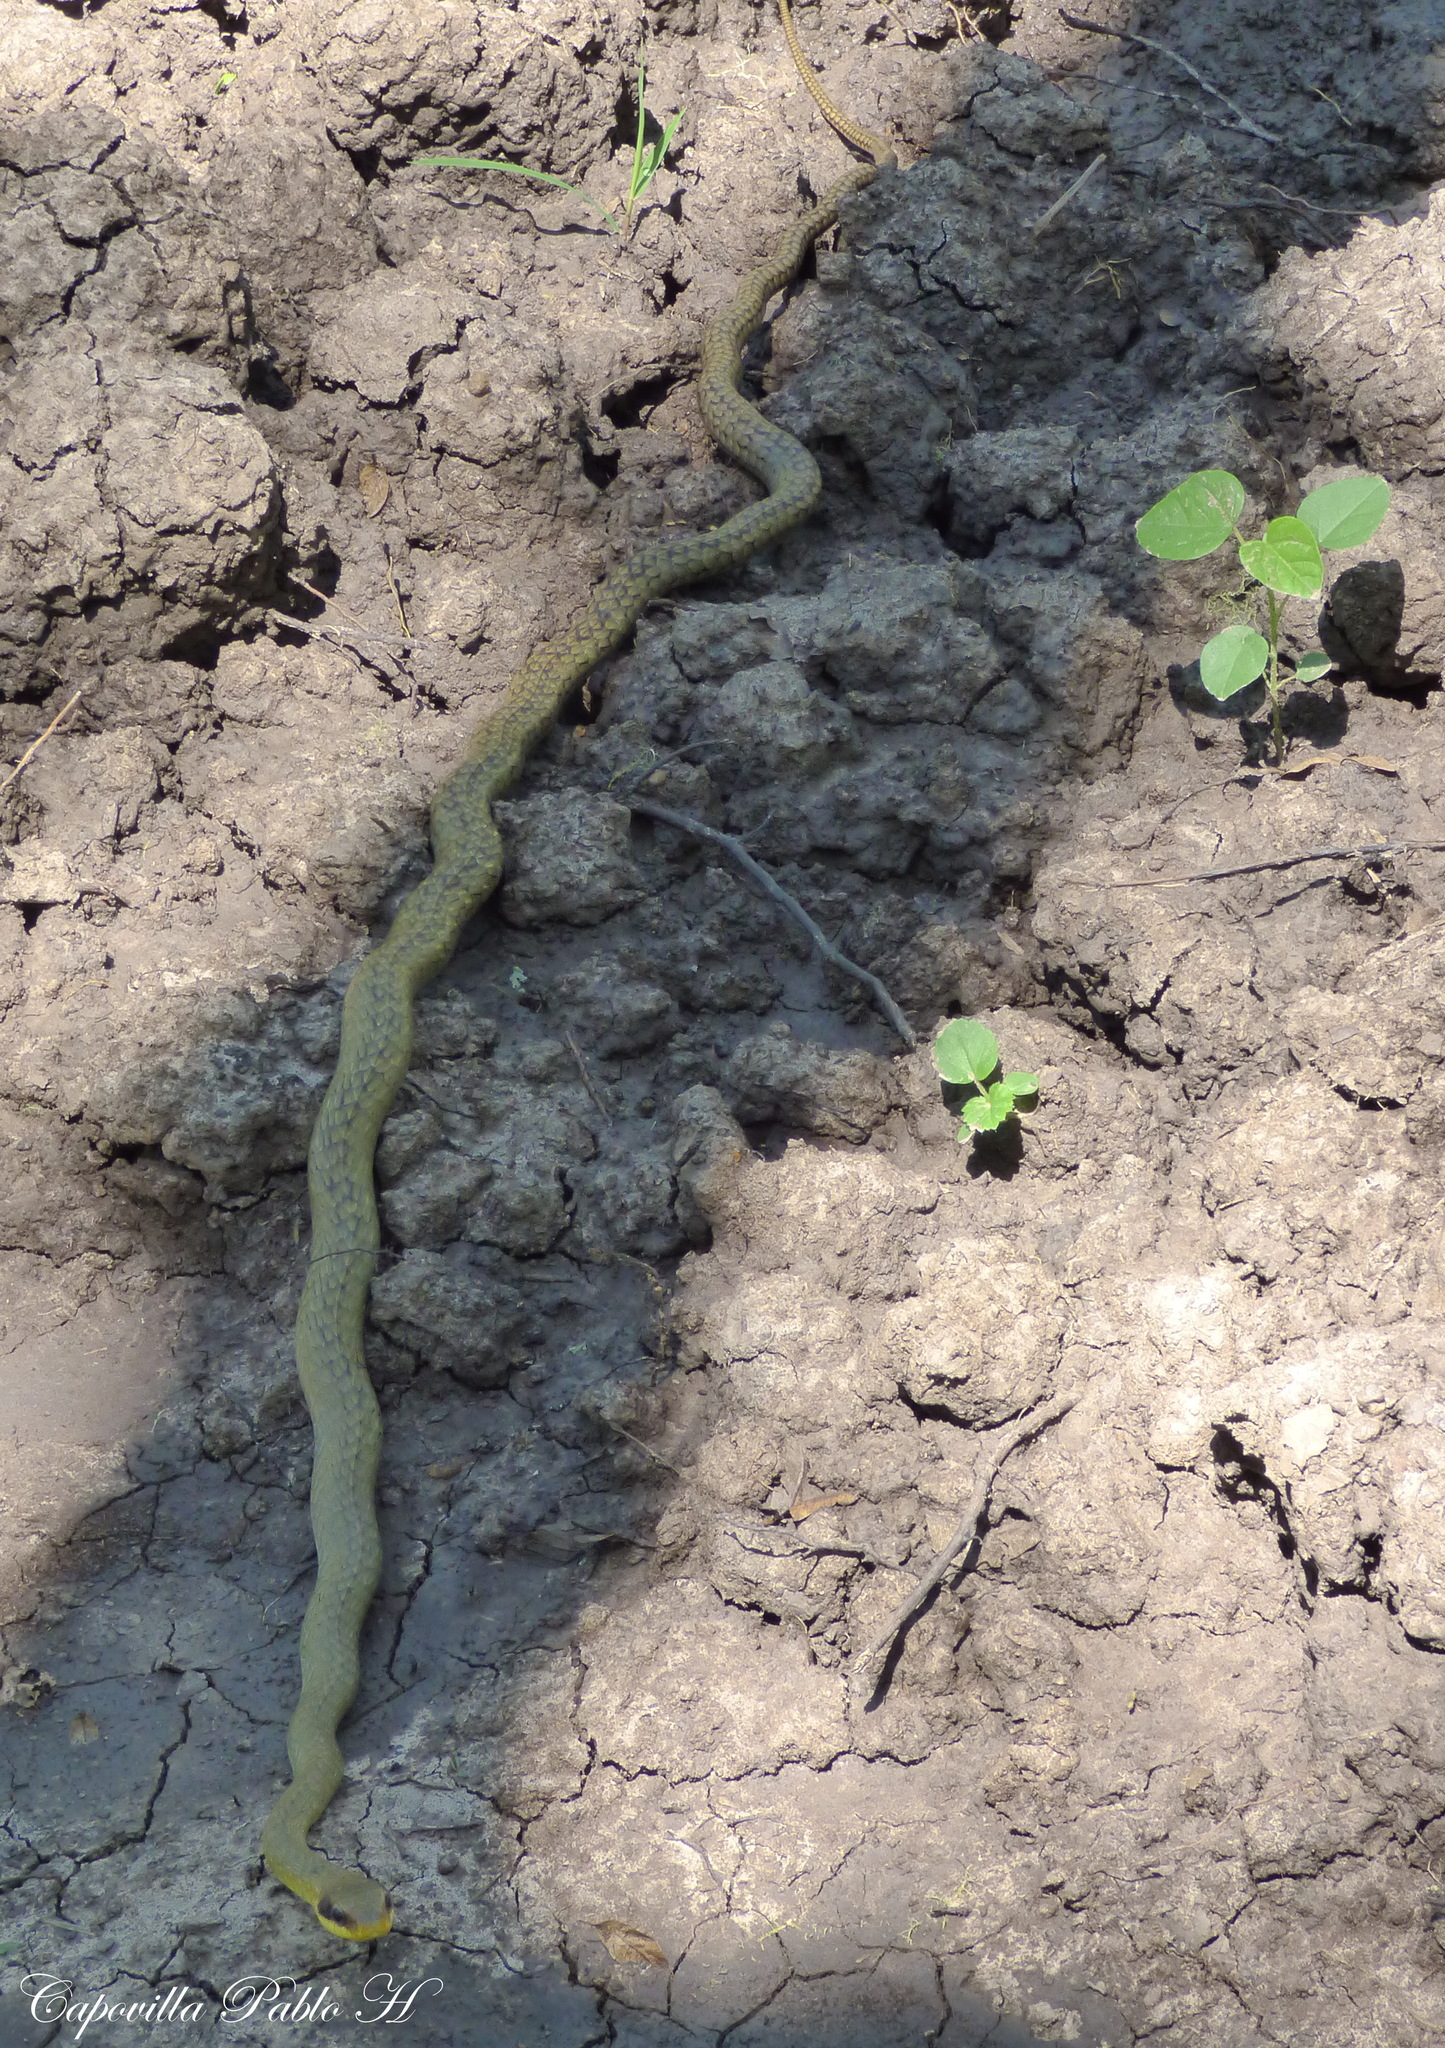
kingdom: Animalia
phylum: Chordata
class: Squamata
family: Colubridae
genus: Chironius
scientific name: Chironius quadricarinatus
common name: Central sipo
